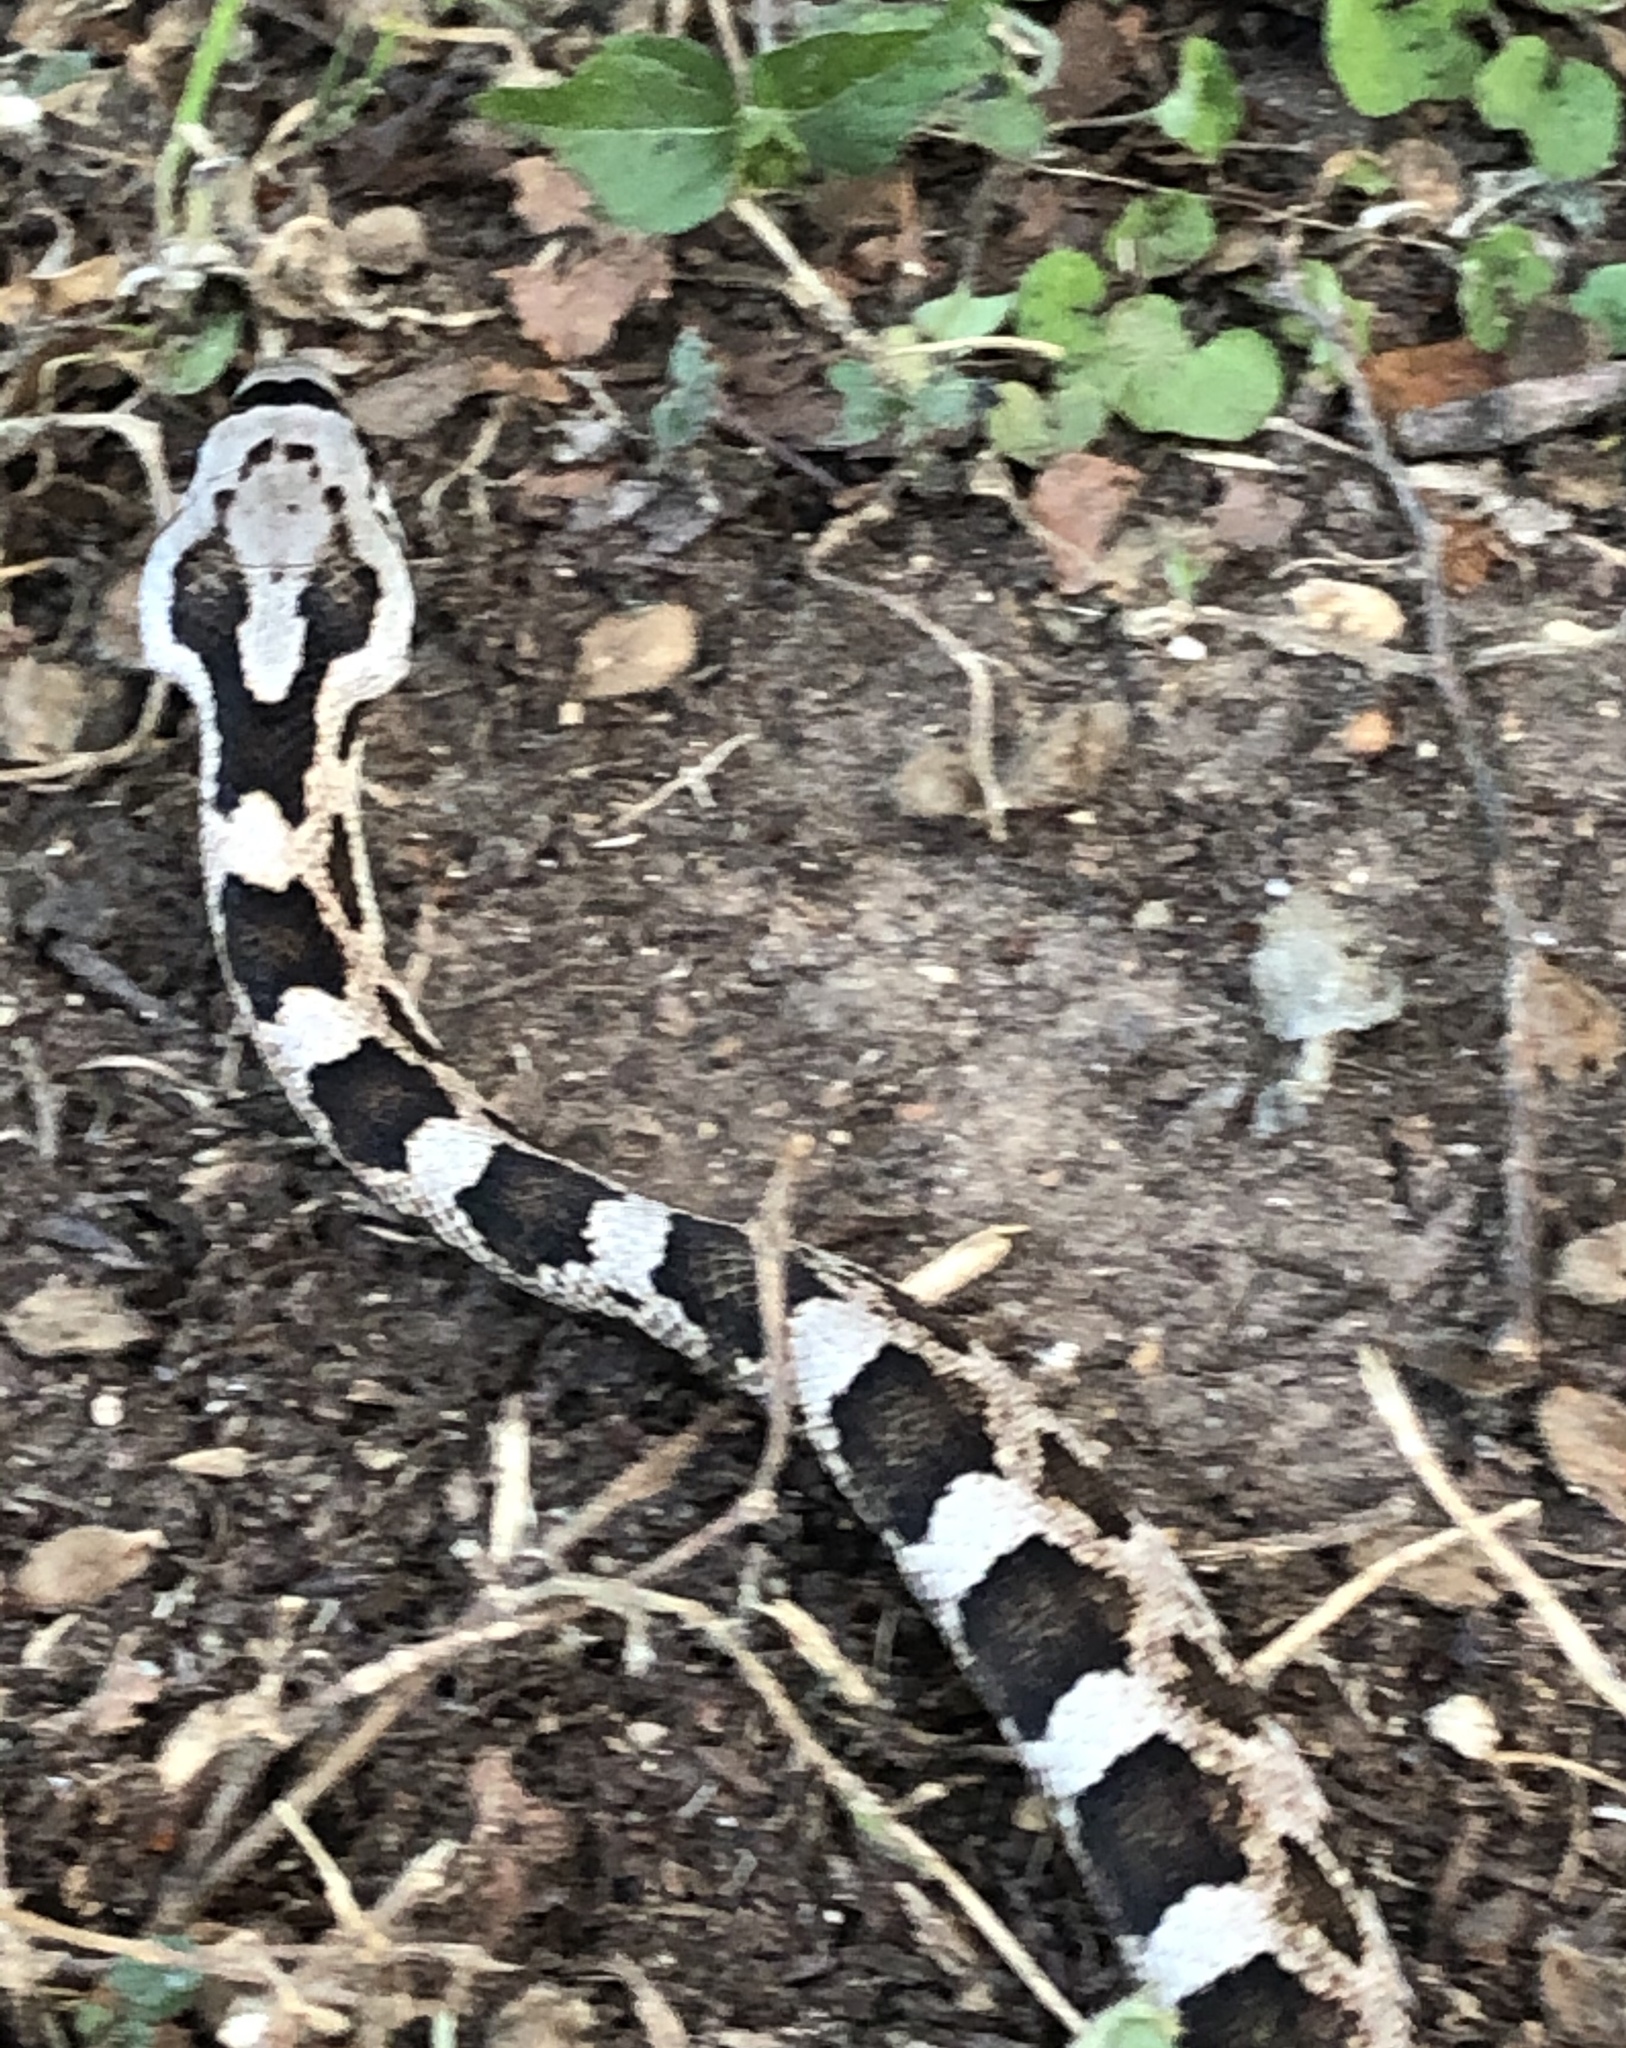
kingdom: Animalia
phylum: Chordata
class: Squamata
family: Colubridae
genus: Pantherophis
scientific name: Pantherophis obsoletus
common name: Black rat snake
